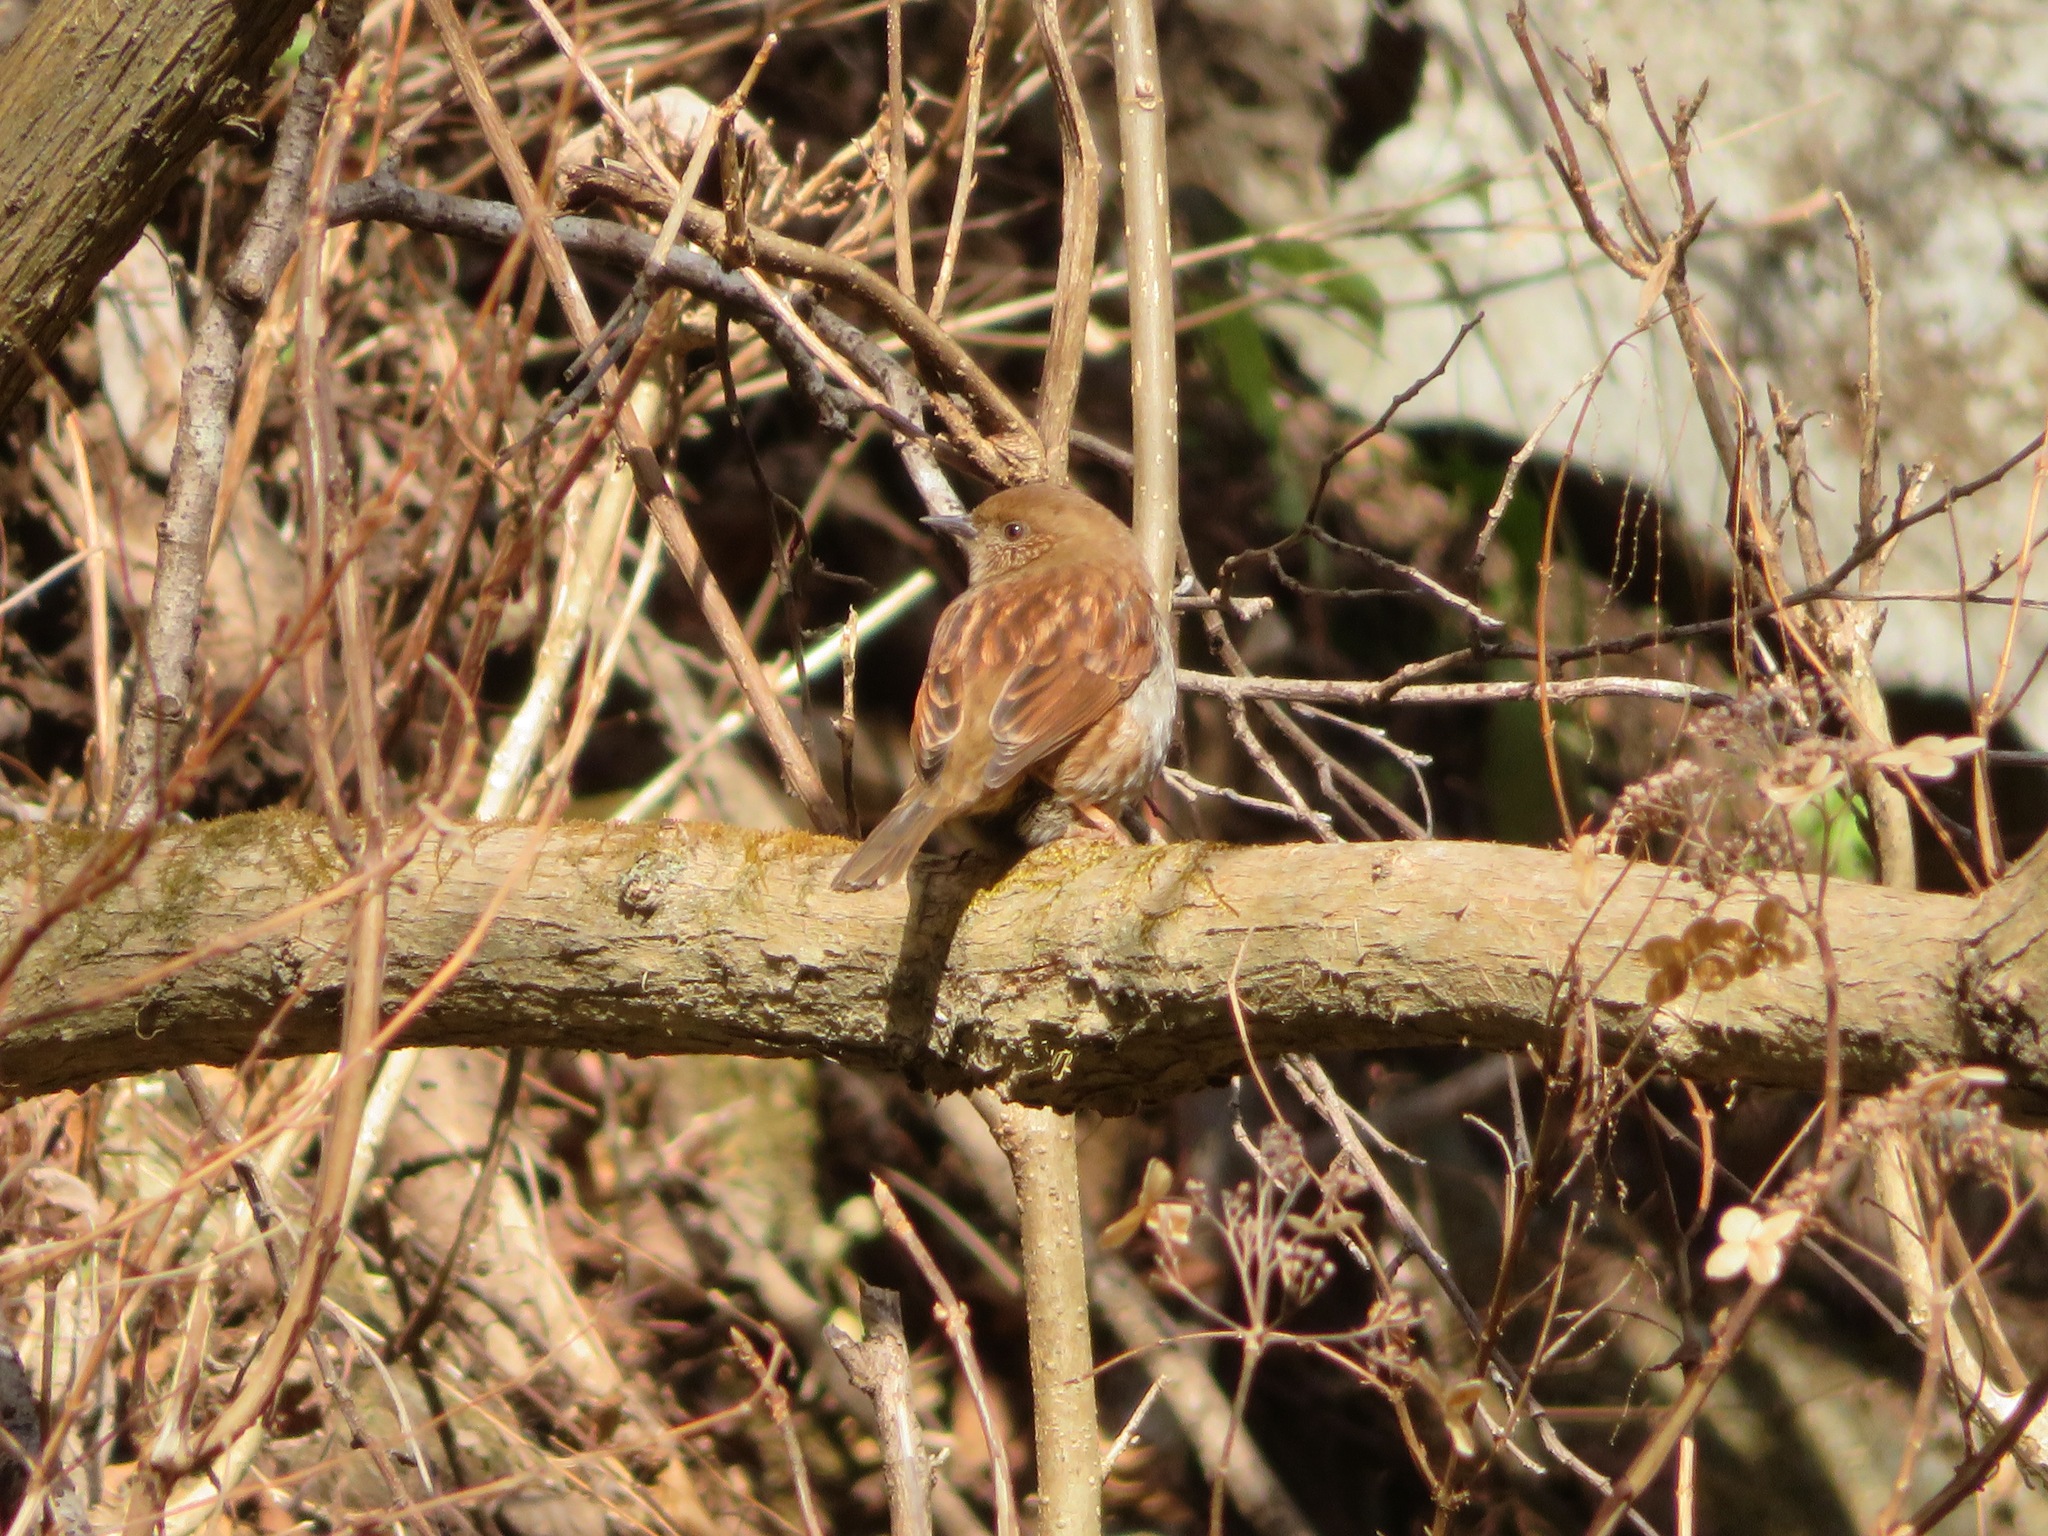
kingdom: Animalia
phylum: Chordata
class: Aves
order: Passeriformes
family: Prunellidae
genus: Prunella
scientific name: Prunella rubida
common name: Japanese accentor
